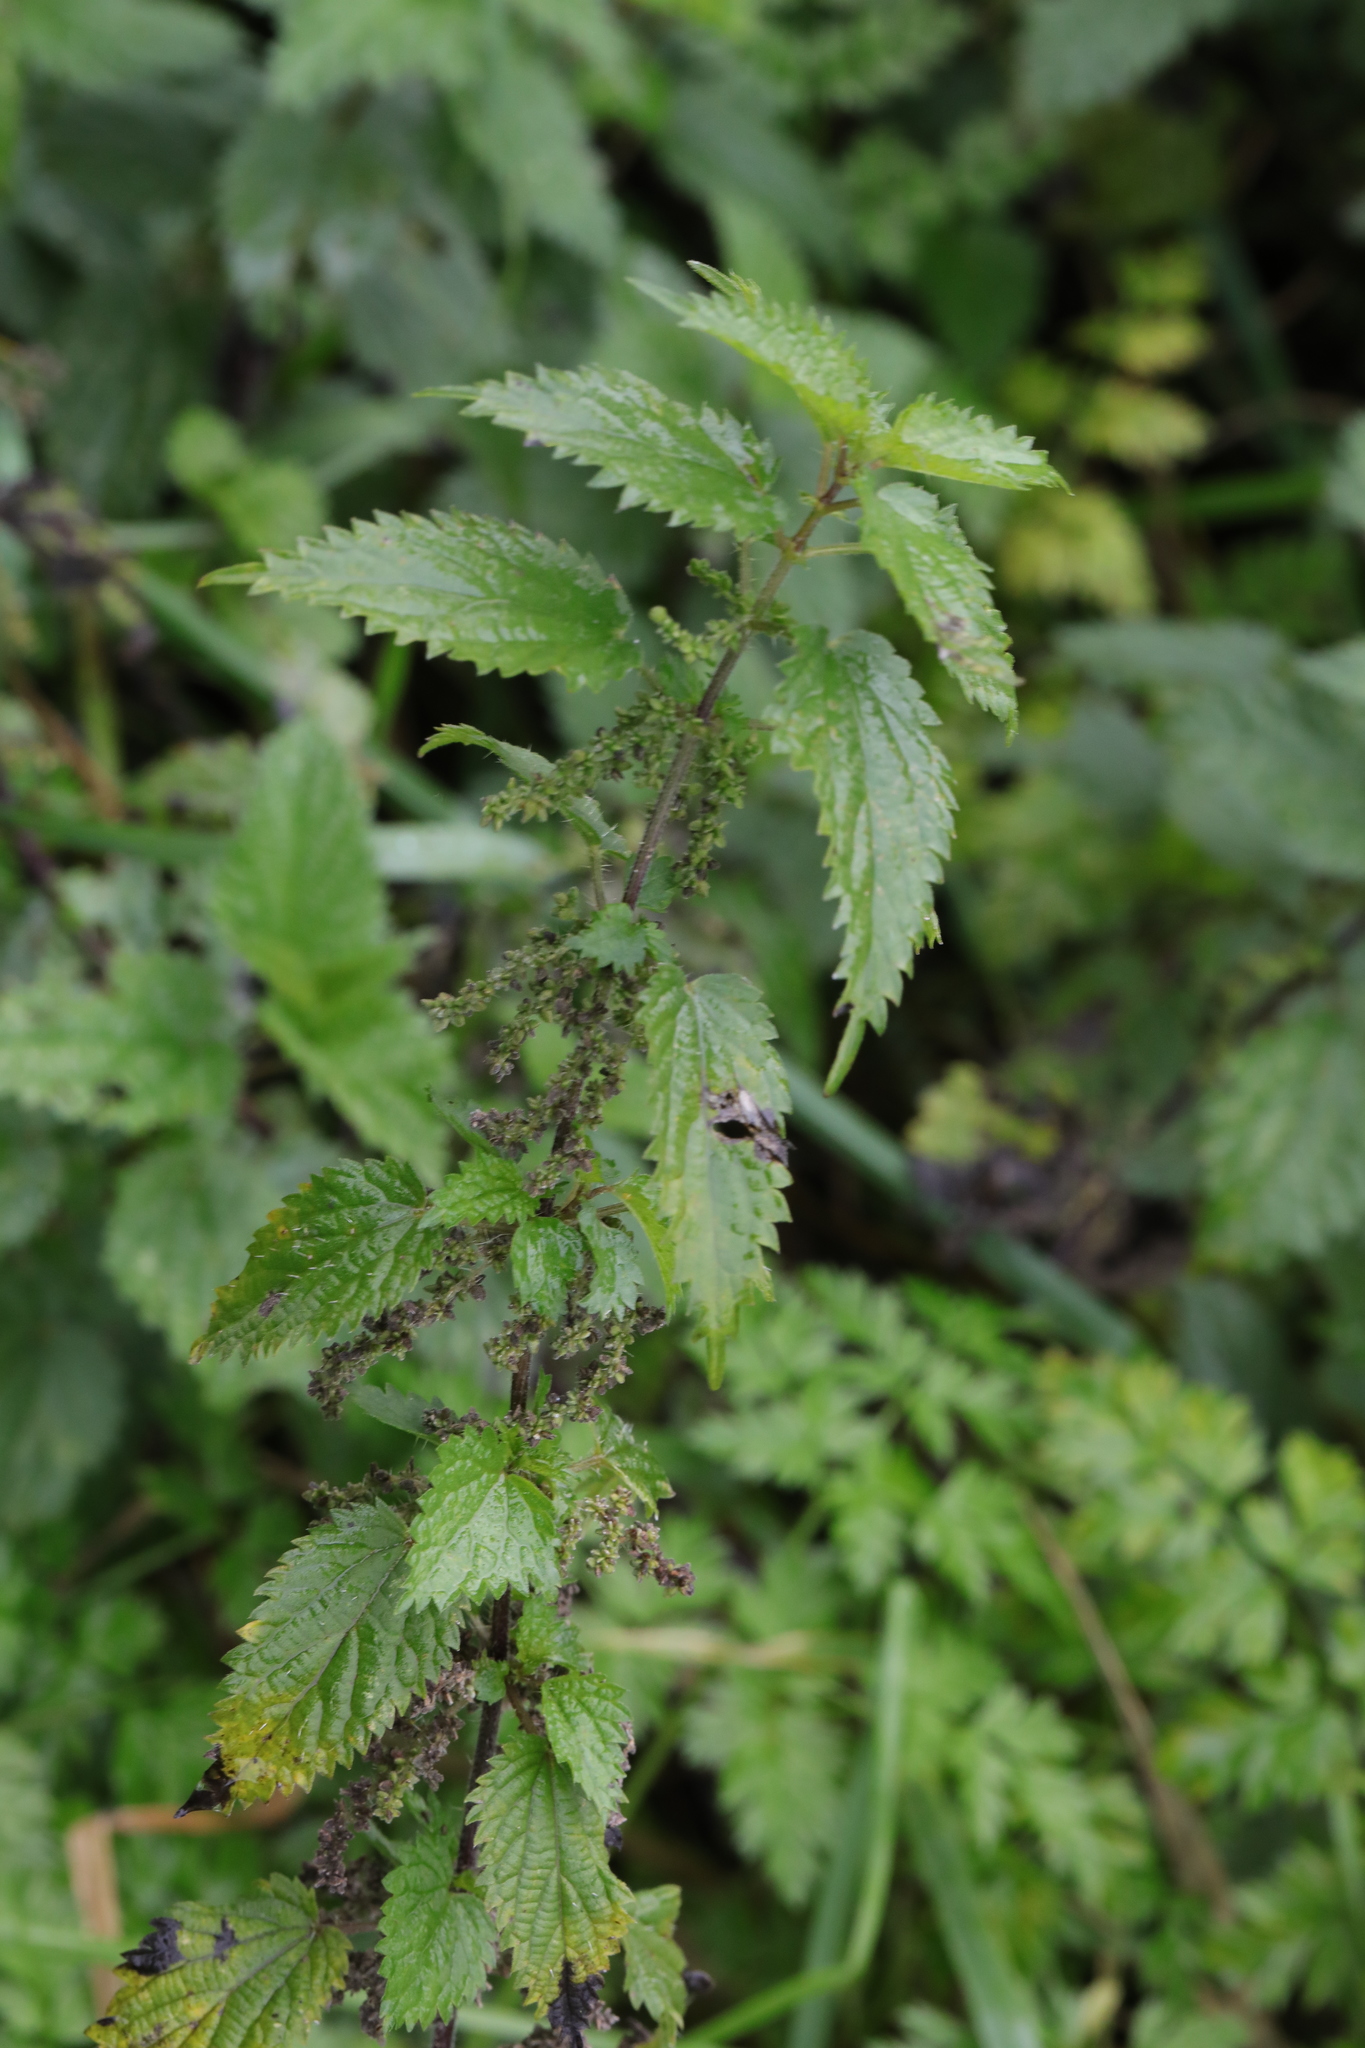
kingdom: Plantae
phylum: Tracheophyta
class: Magnoliopsida
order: Rosales
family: Urticaceae
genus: Urtica
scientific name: Urtica dioica
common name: Common nettle
